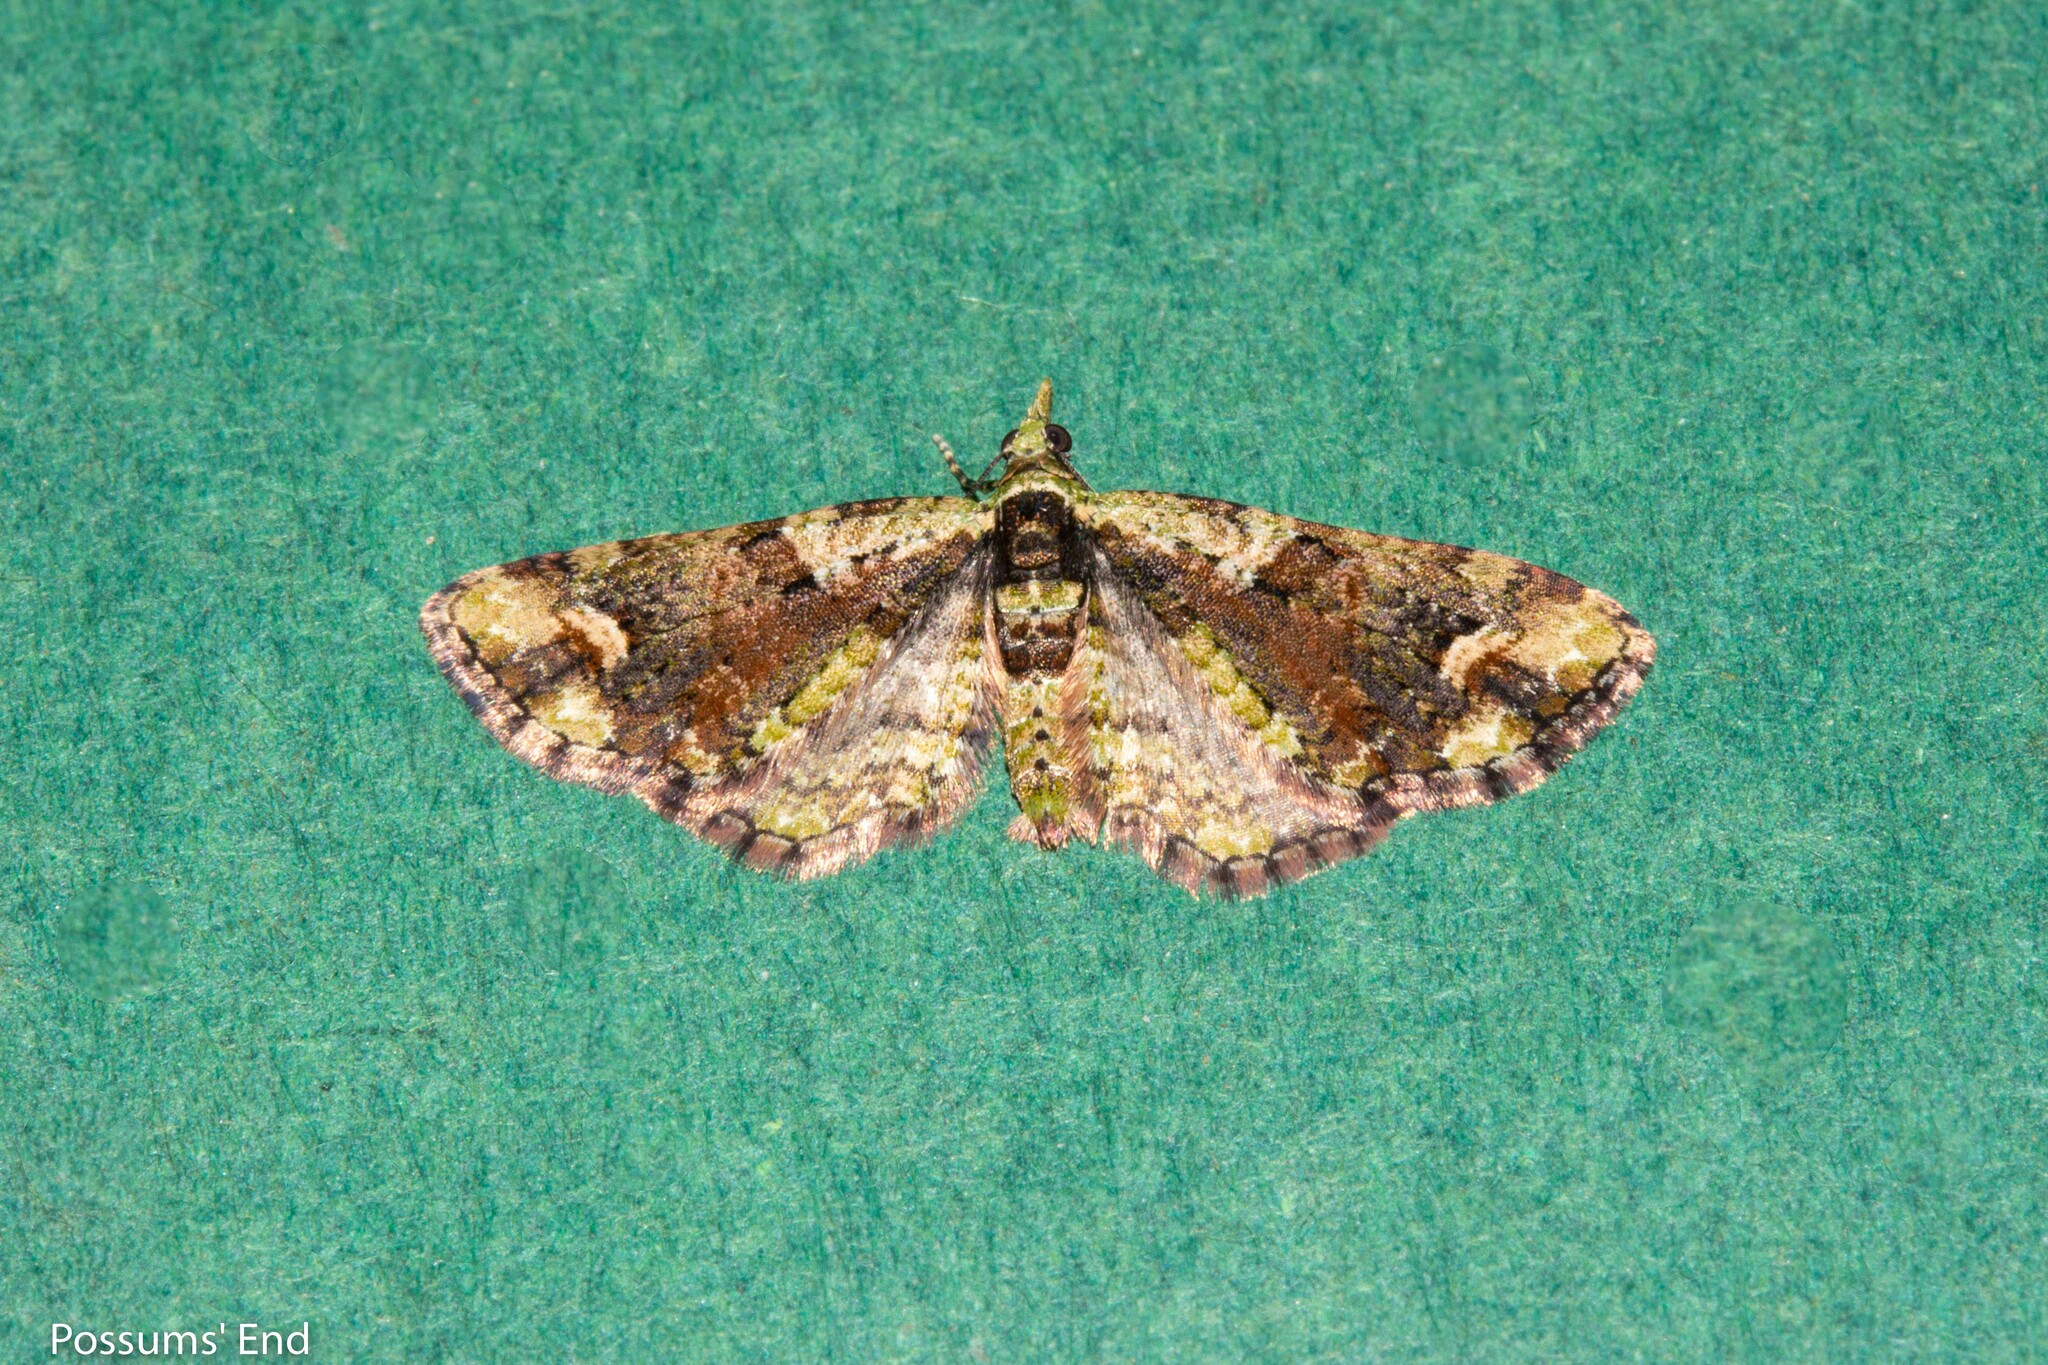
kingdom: Animalia
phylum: Arthropoda
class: Insecta
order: Lepidoptera
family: Geometridae
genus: Idaea
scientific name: Idaea mutanda
